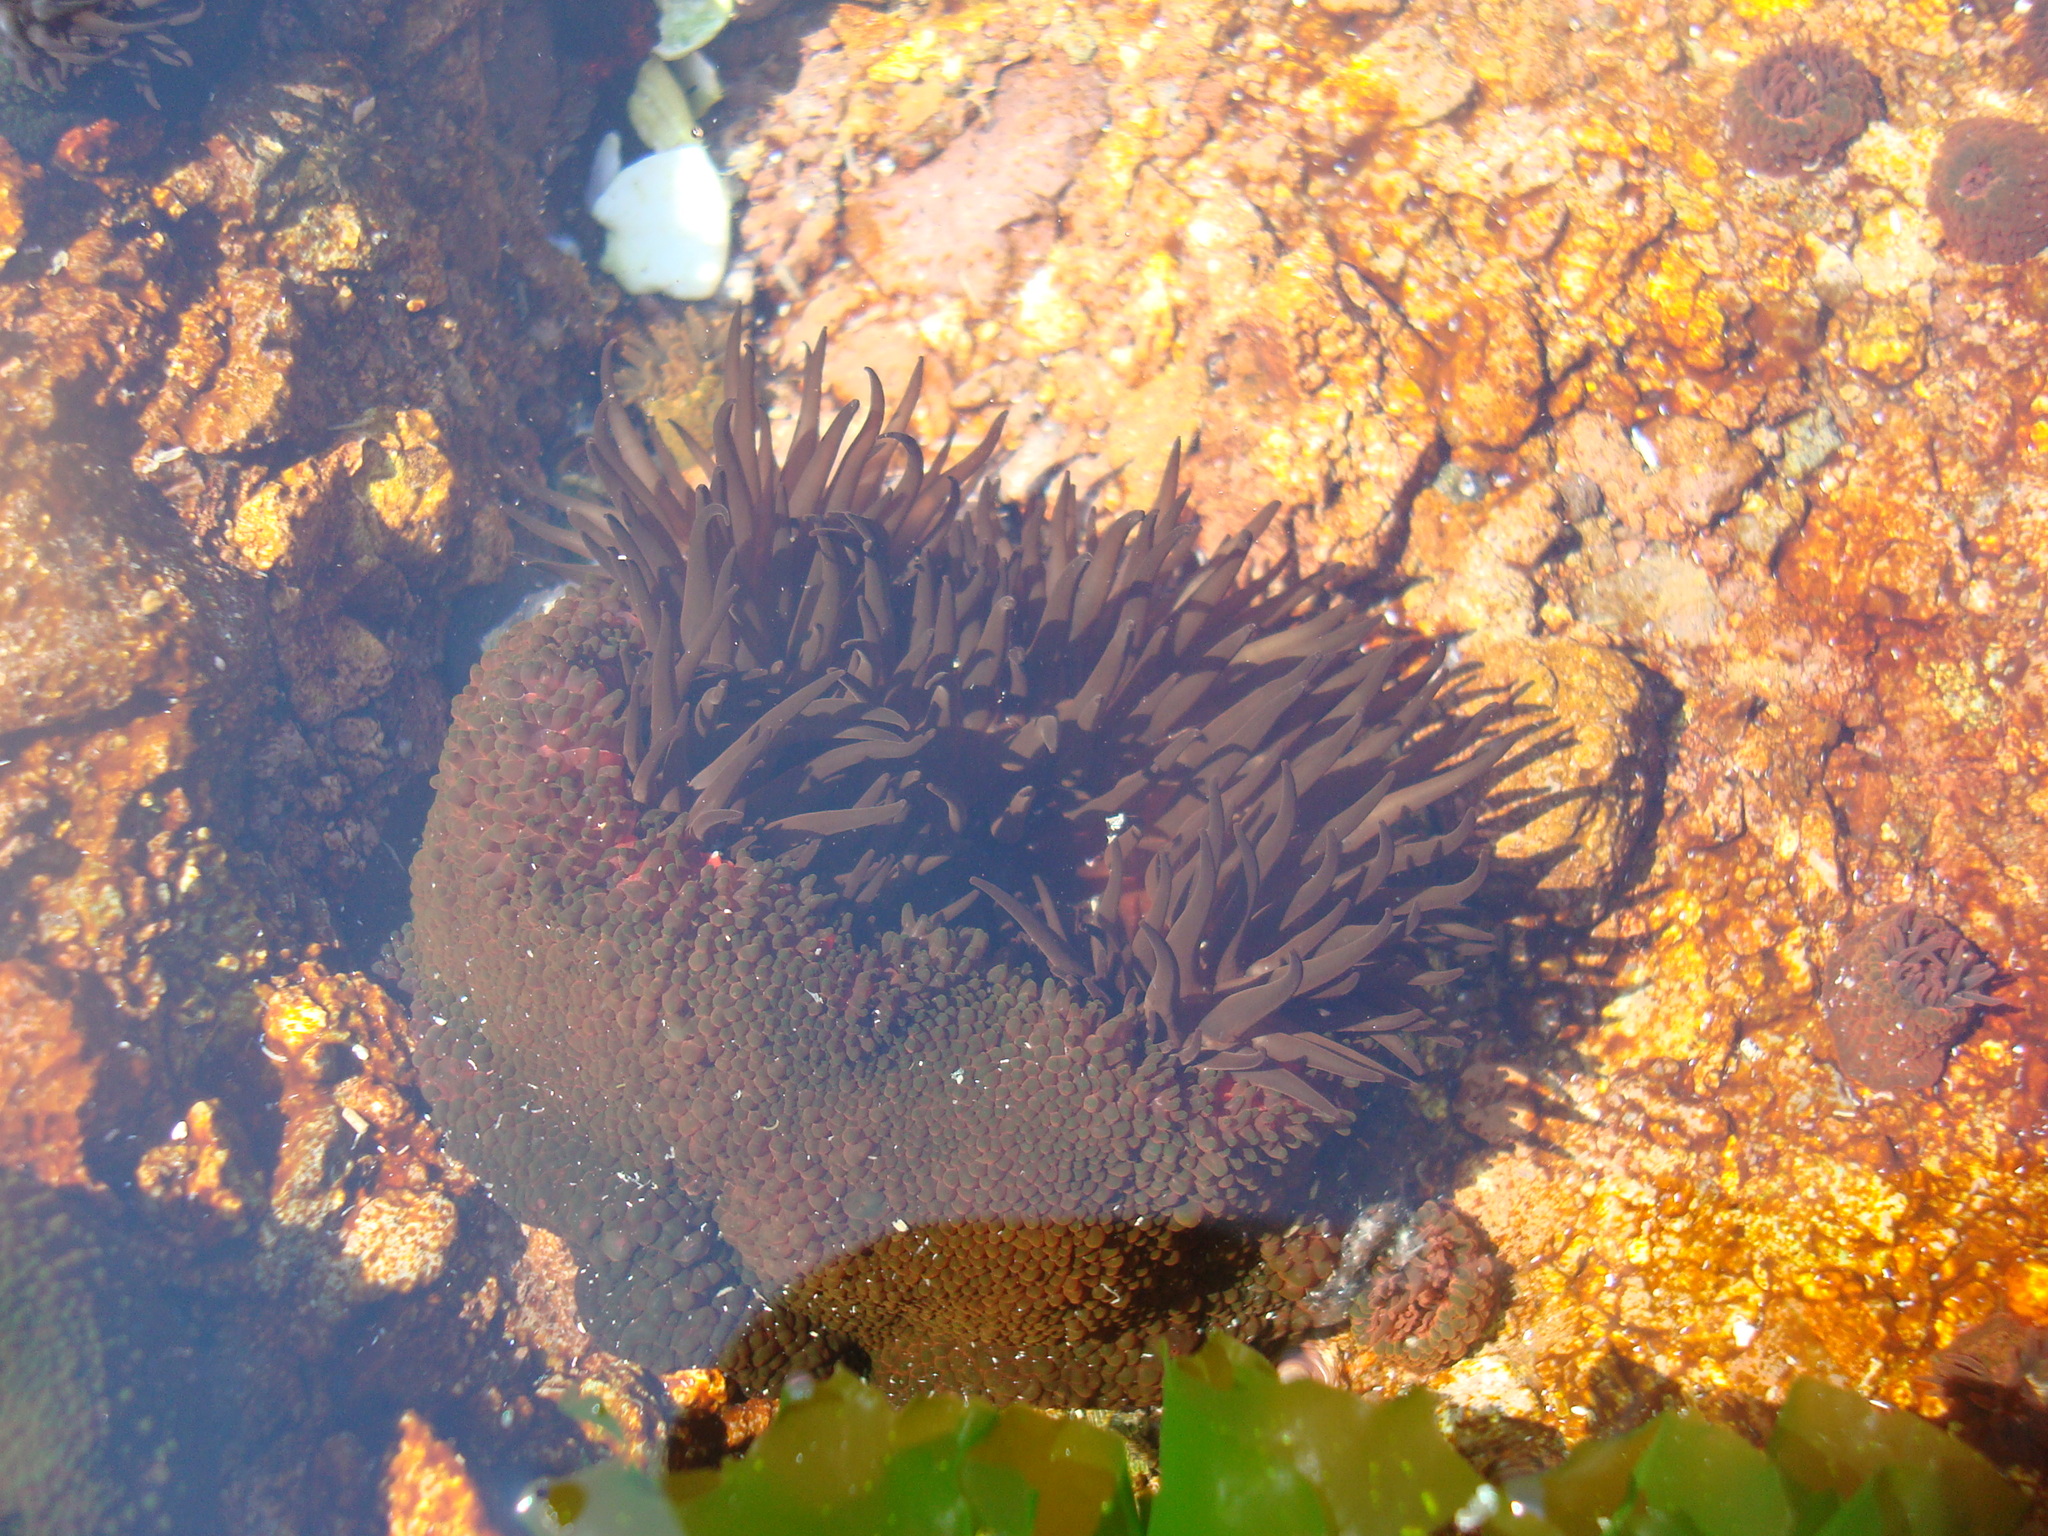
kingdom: Animalia
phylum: Cnidaria
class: Anthozoa
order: Actiniaria
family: Actiniidae
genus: Phymactis
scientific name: Phymactis papillosa
